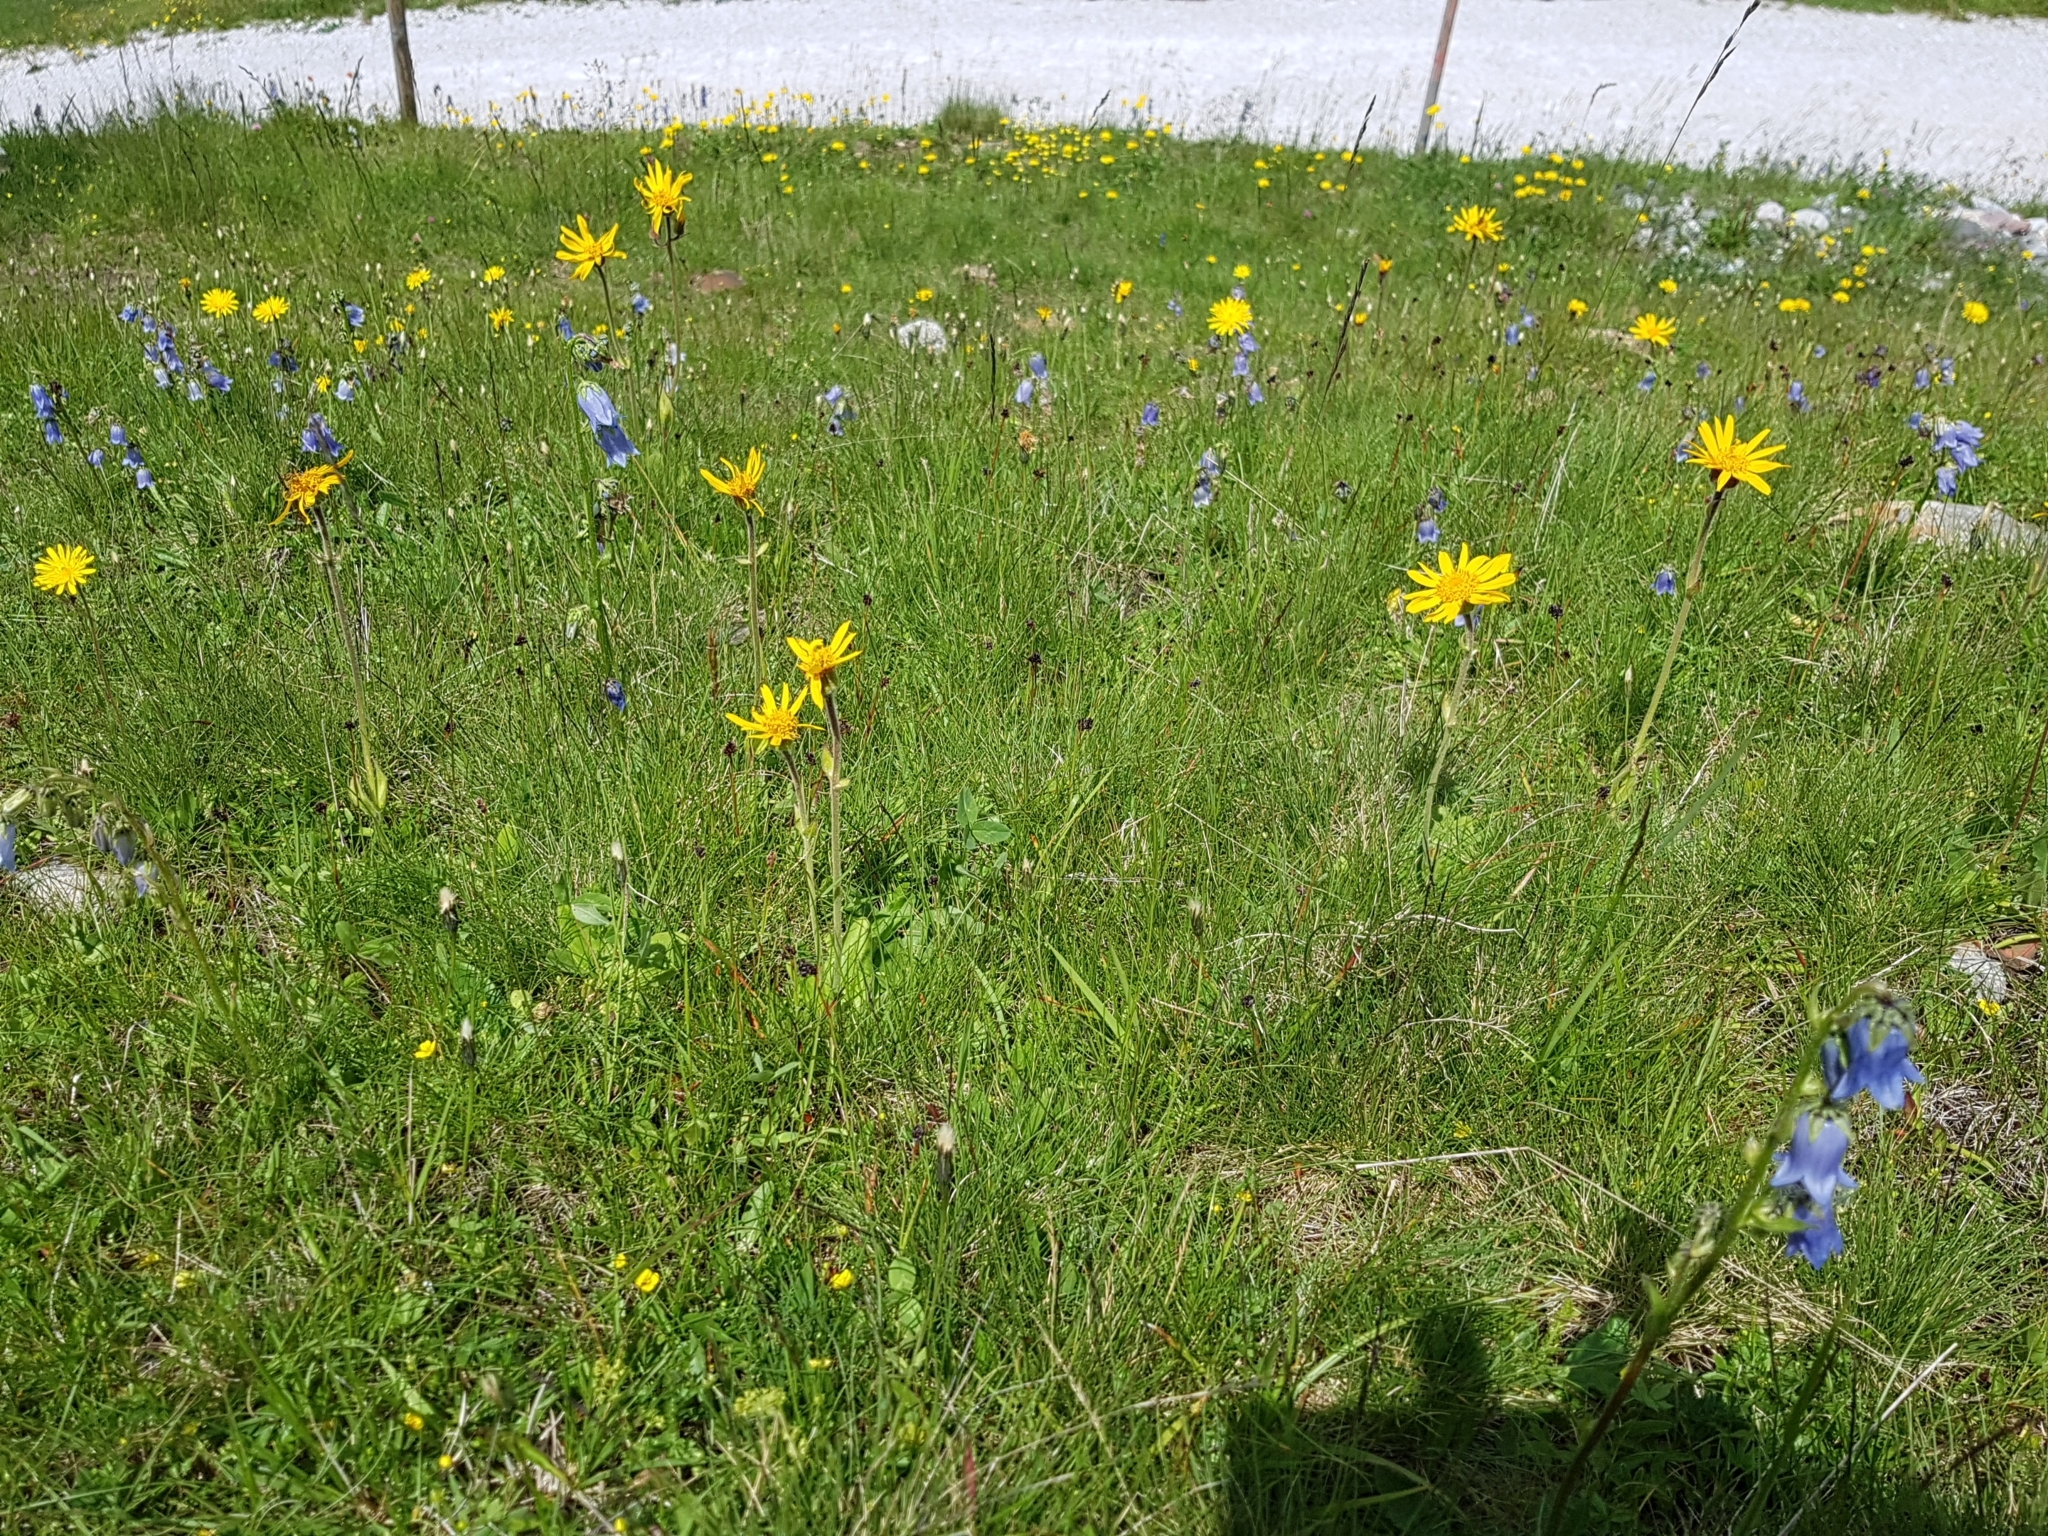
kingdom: Plantae
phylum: Tracheophyta
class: Magnoliopsida
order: Asterales
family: Asteraceae
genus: Arnica
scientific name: Arnica montana
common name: Leopard's bane
